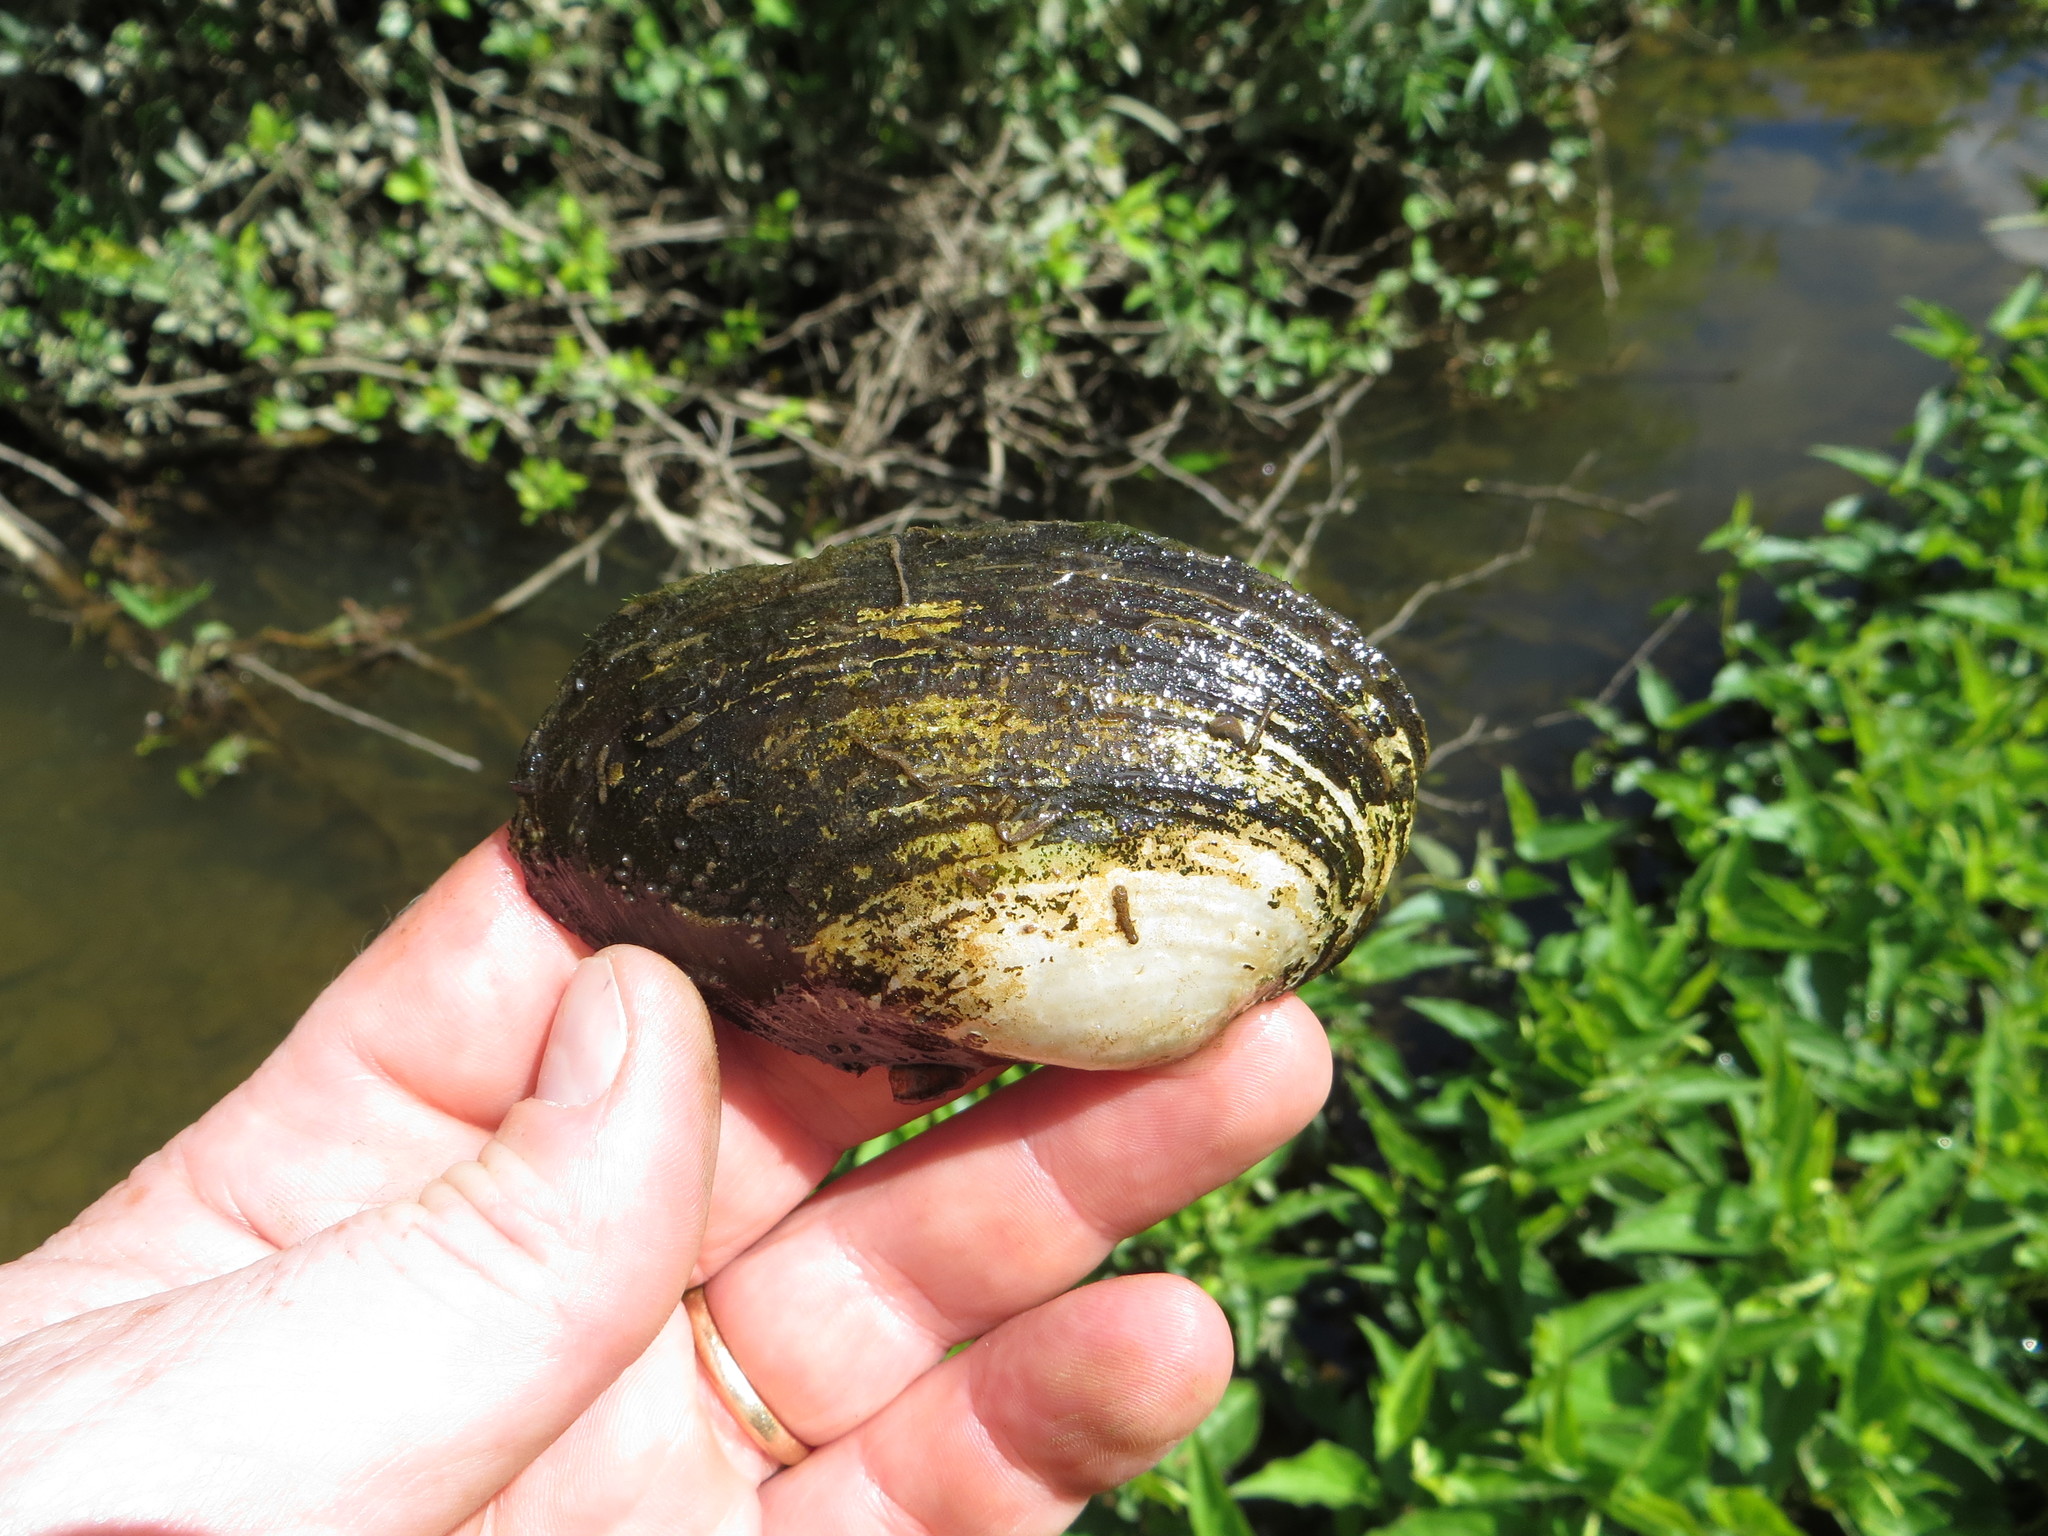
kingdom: Animalia
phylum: Mollusca
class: Bivalvia
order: Unionida
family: Unionidae
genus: Pyganodon
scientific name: Pyganodon grandis
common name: Giant floater
